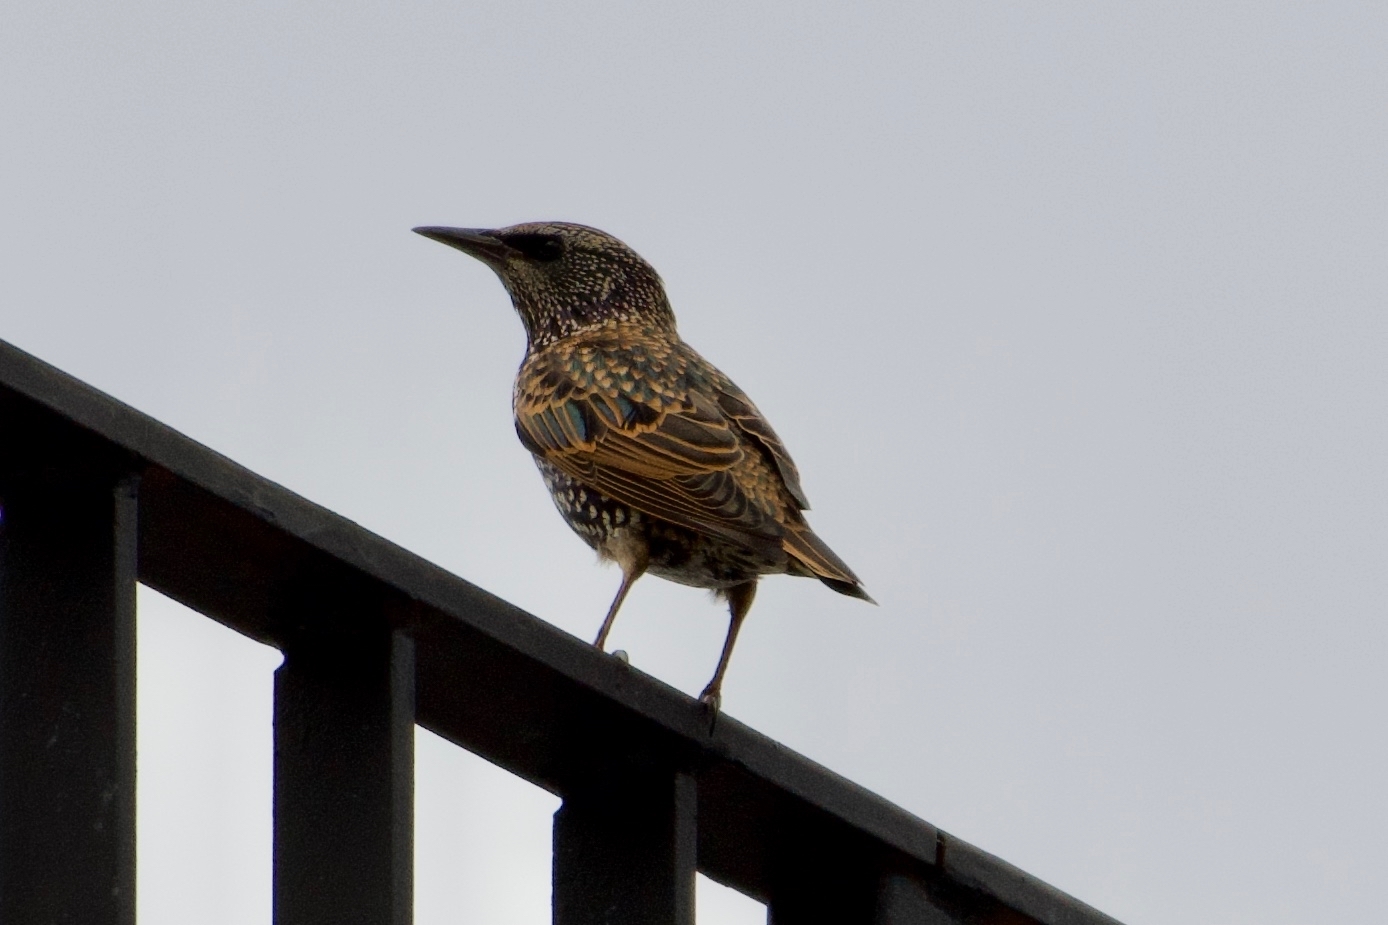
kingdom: Animalia
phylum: Chordata
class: Aves
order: Passeriformes
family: Sturnidae
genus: Sturnus
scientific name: Sturnus vulgaris
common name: Common starling
